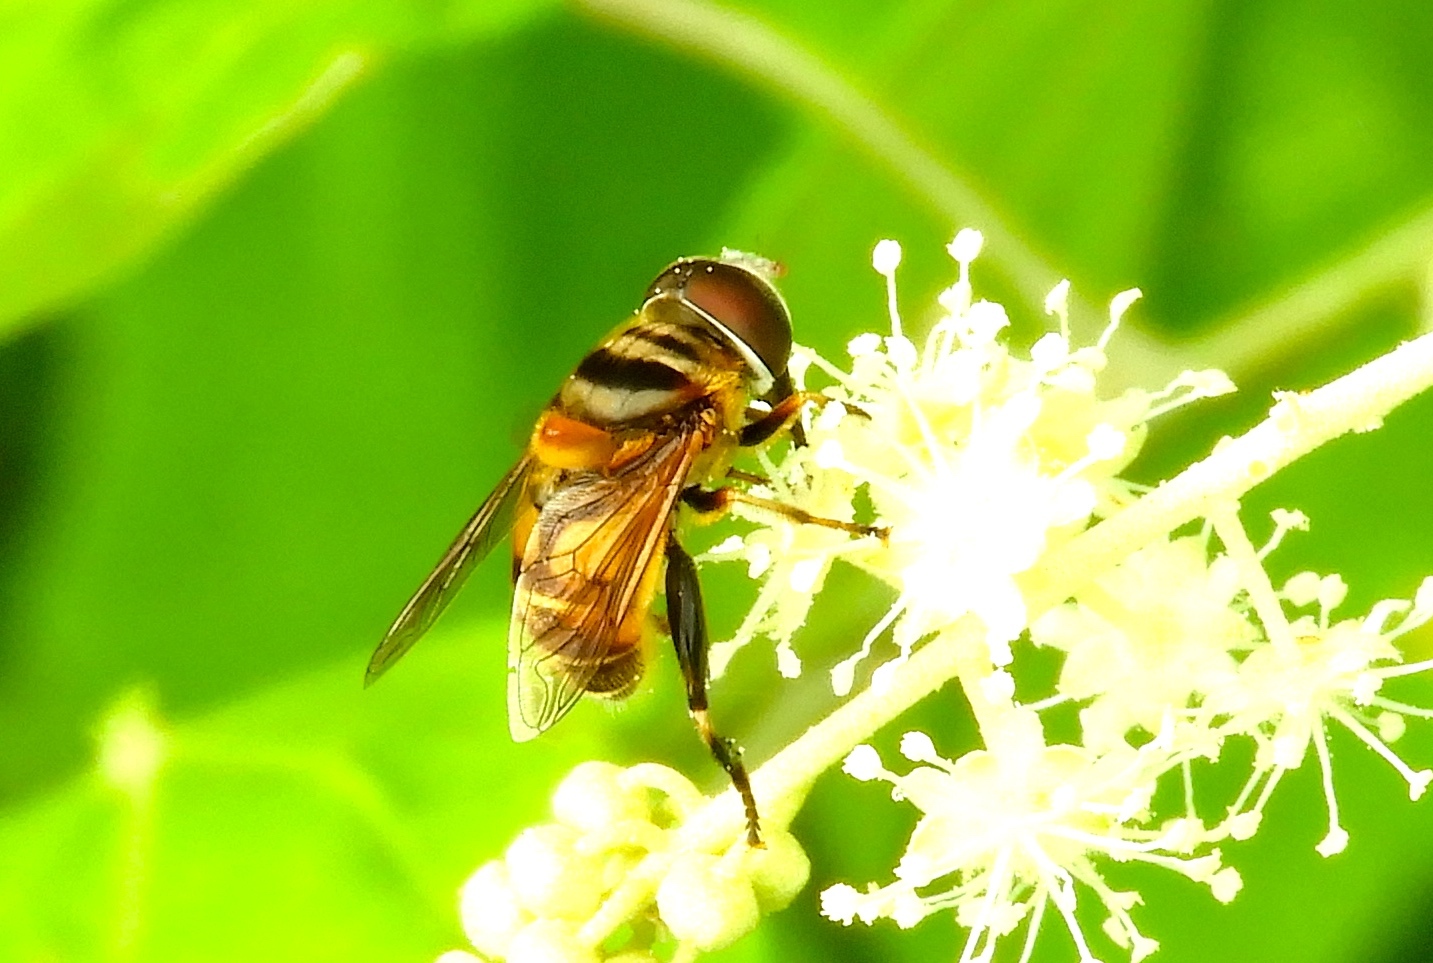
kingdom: Animalia
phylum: Arthropoda
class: Insecta
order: Diptera
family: Syrphidae
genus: Palpada
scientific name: Palpada
